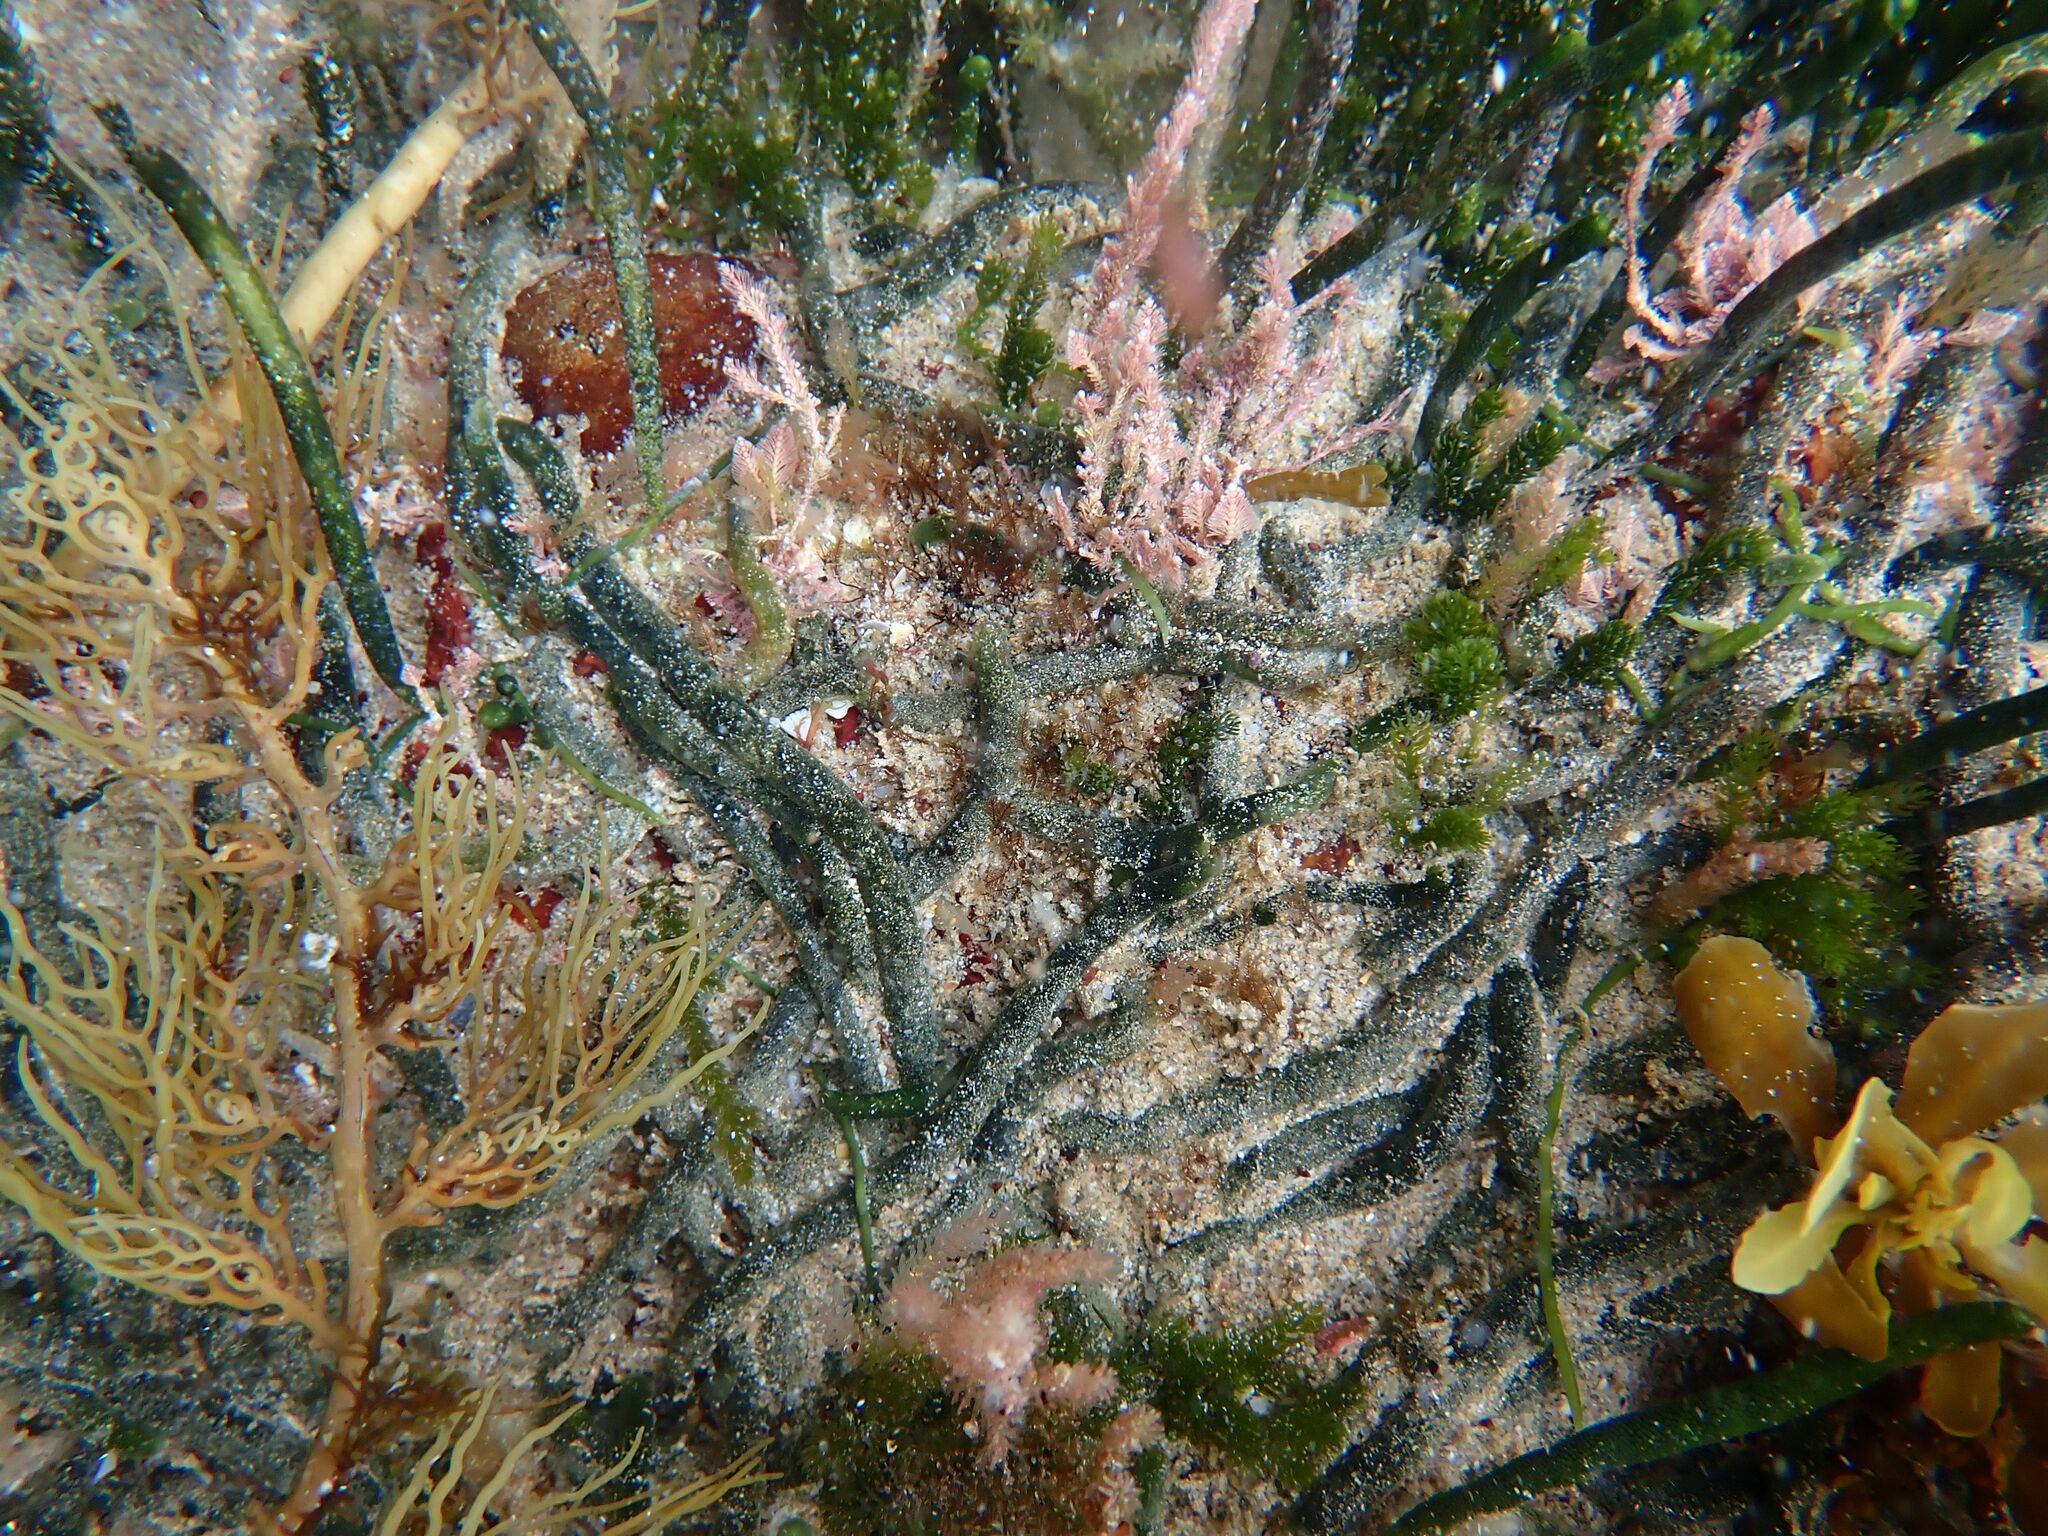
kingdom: Plantae
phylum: Chlorophyta
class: Ulvophyceae
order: Bryopsidales
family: Caulerpaceae
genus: Caulerpa
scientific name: Caulerpa simpliciuscula
